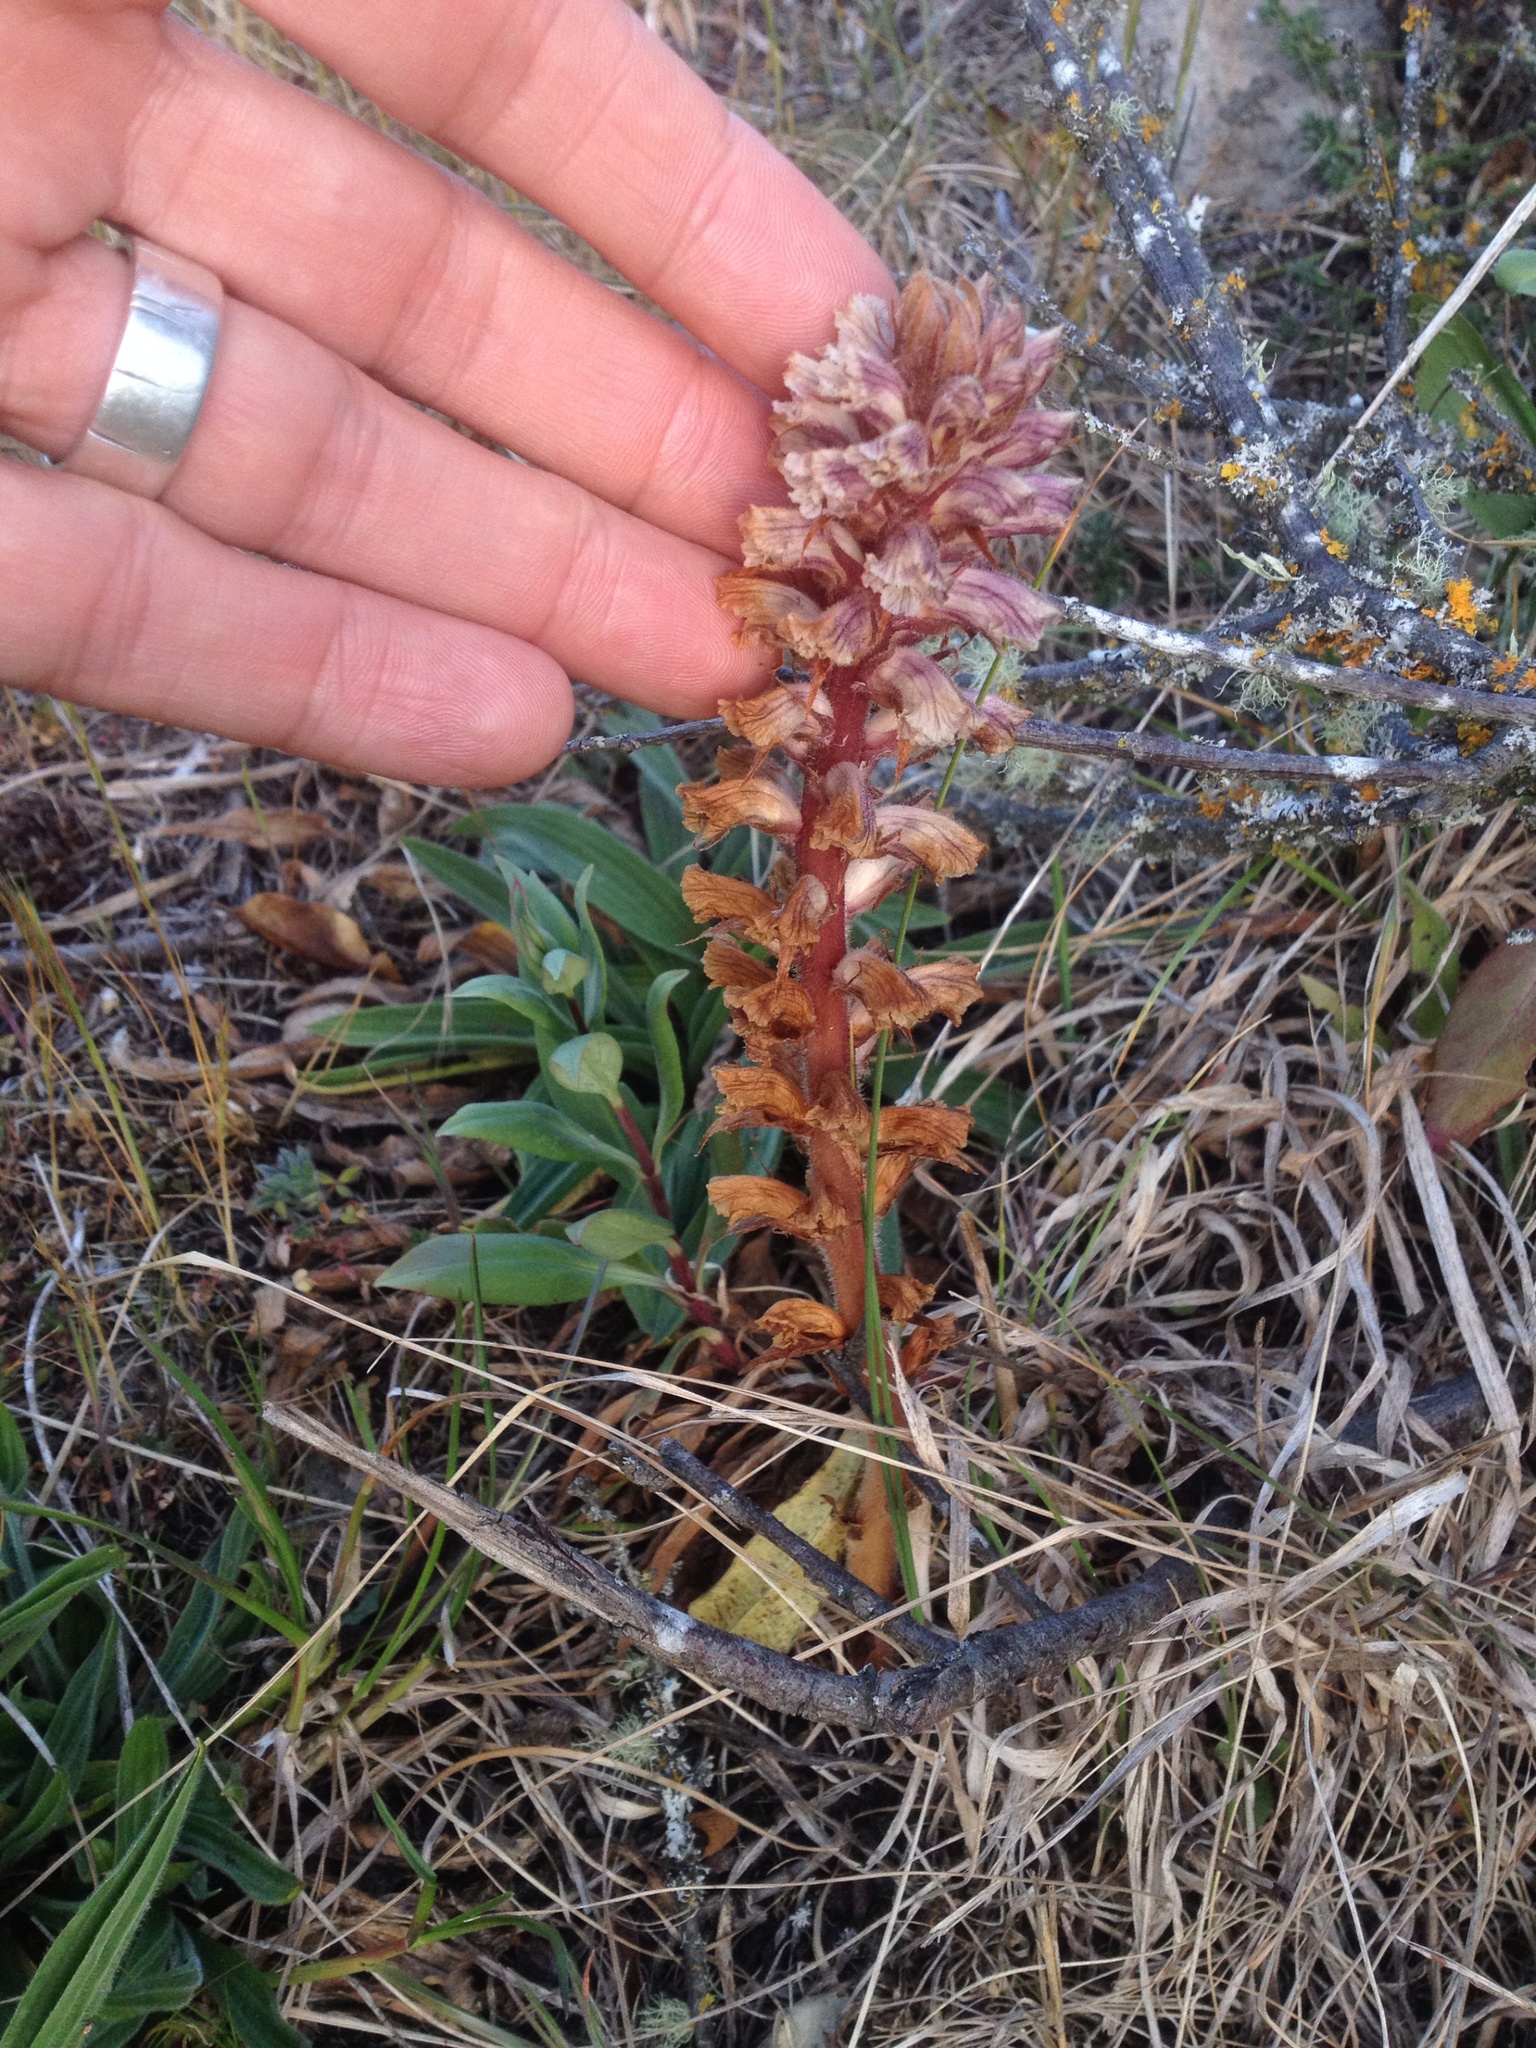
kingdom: Plantae
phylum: Tracheophyta
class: Magnoliopsida
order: Lamiales
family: Orobanchaceae
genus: Orobanche
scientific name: Orobanche minor
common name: Common broomrape
